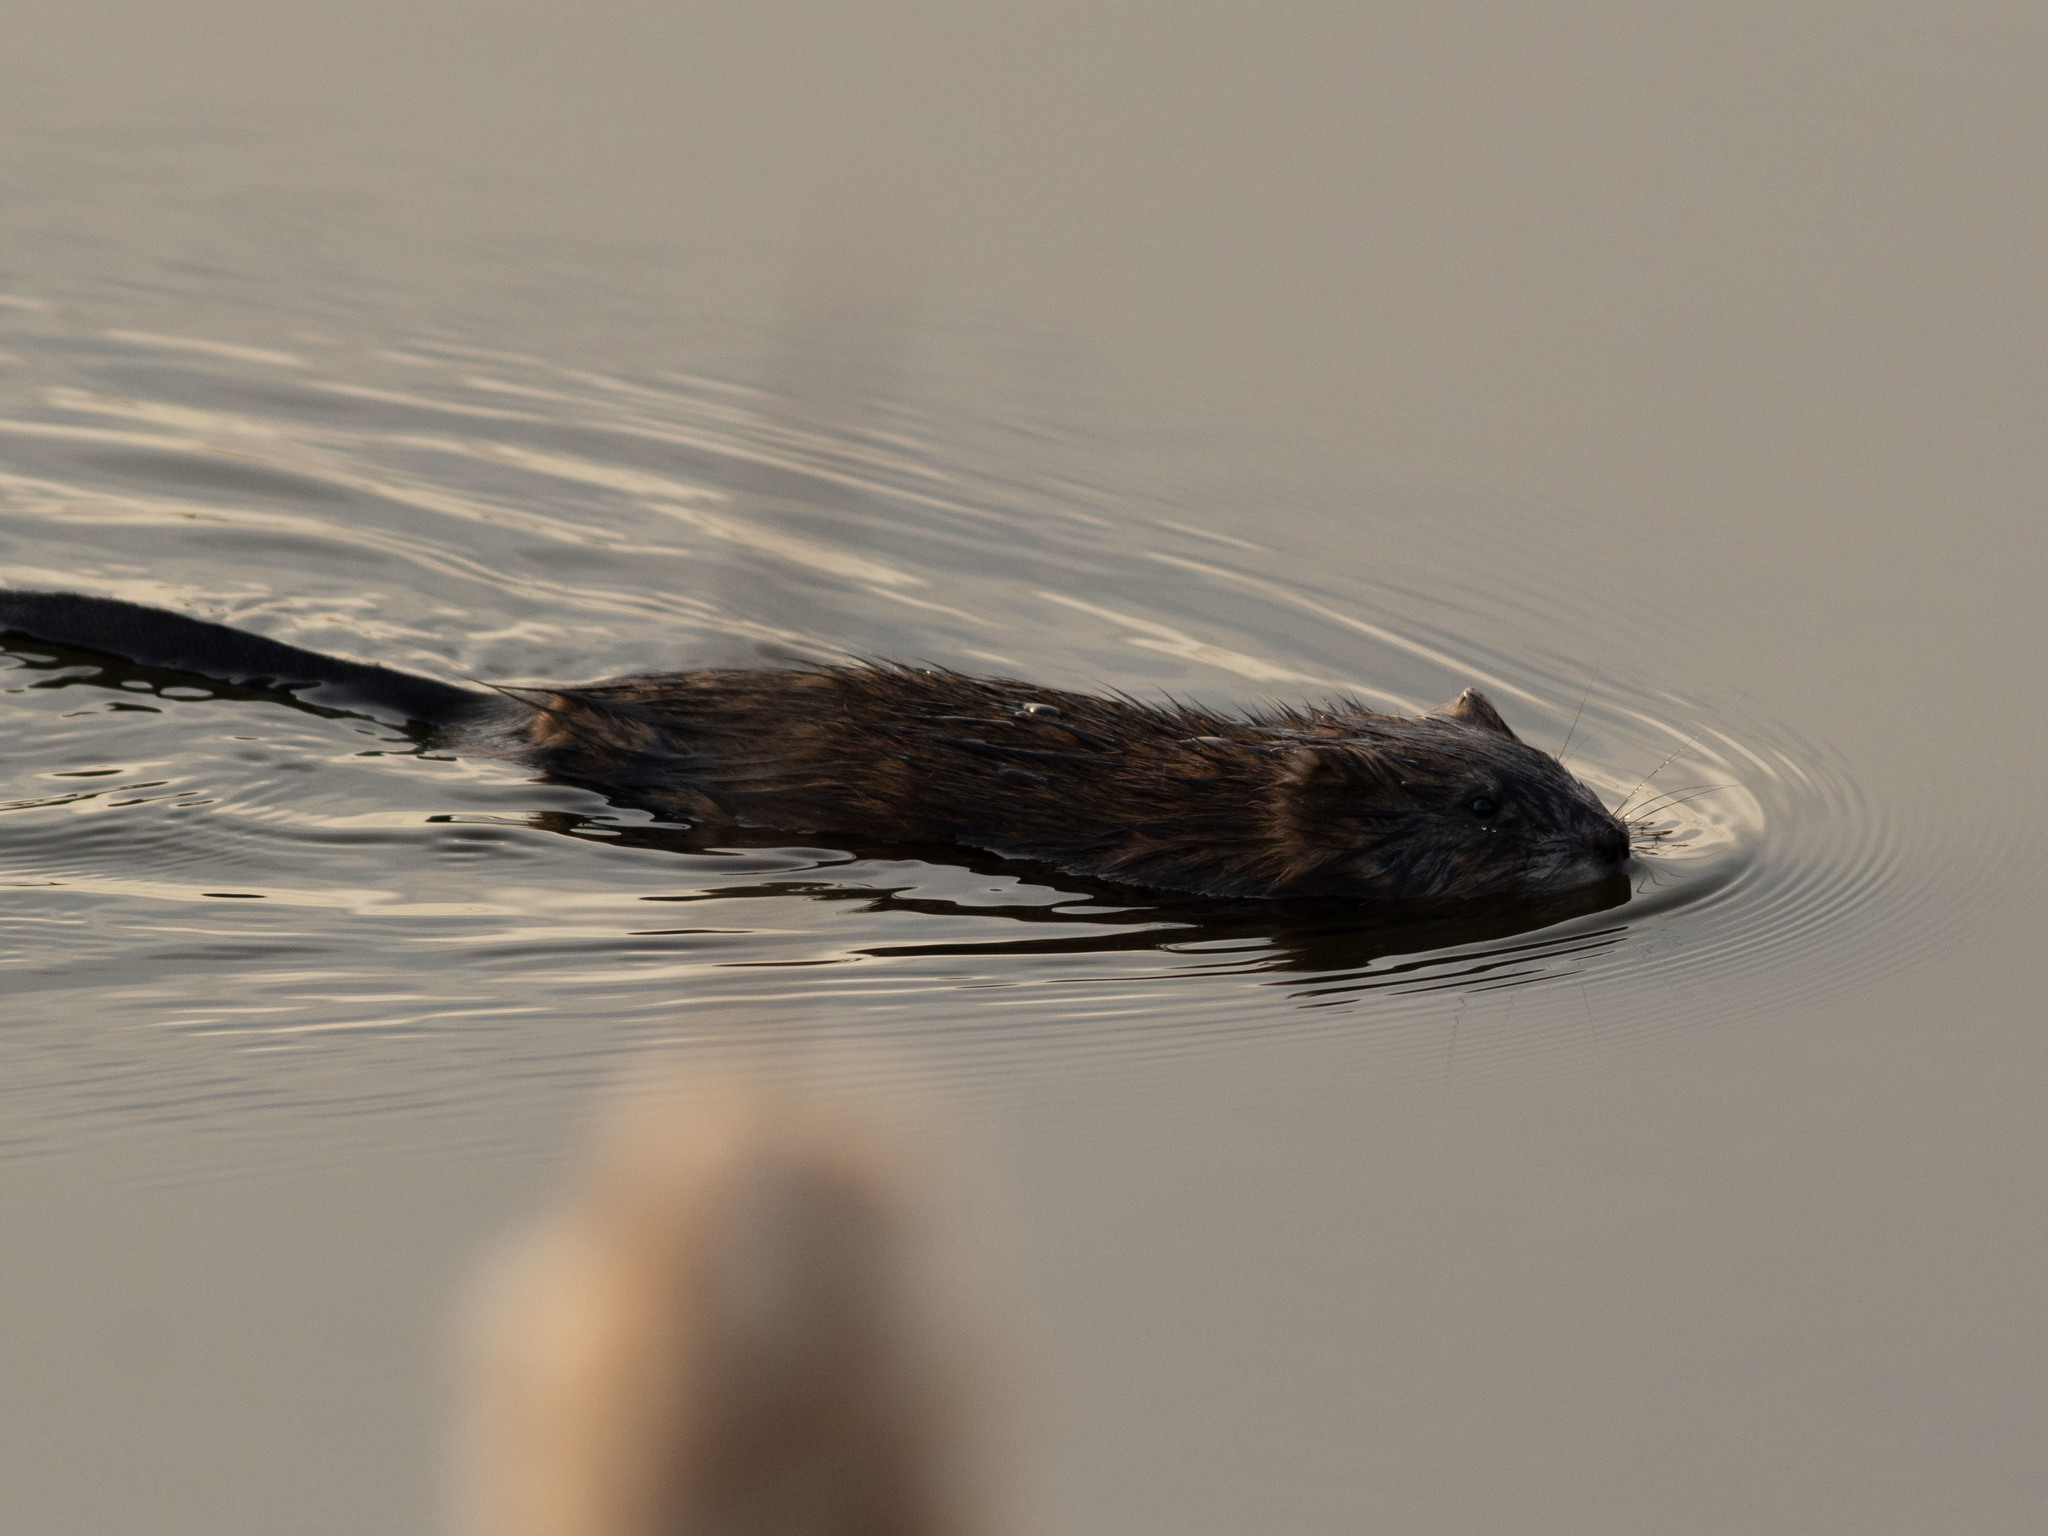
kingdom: Animalia
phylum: Chordata
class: Mammalia
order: Rodentia
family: Cricetidae
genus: Ondatra
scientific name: Ondatra zibethicus
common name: Muskrat
